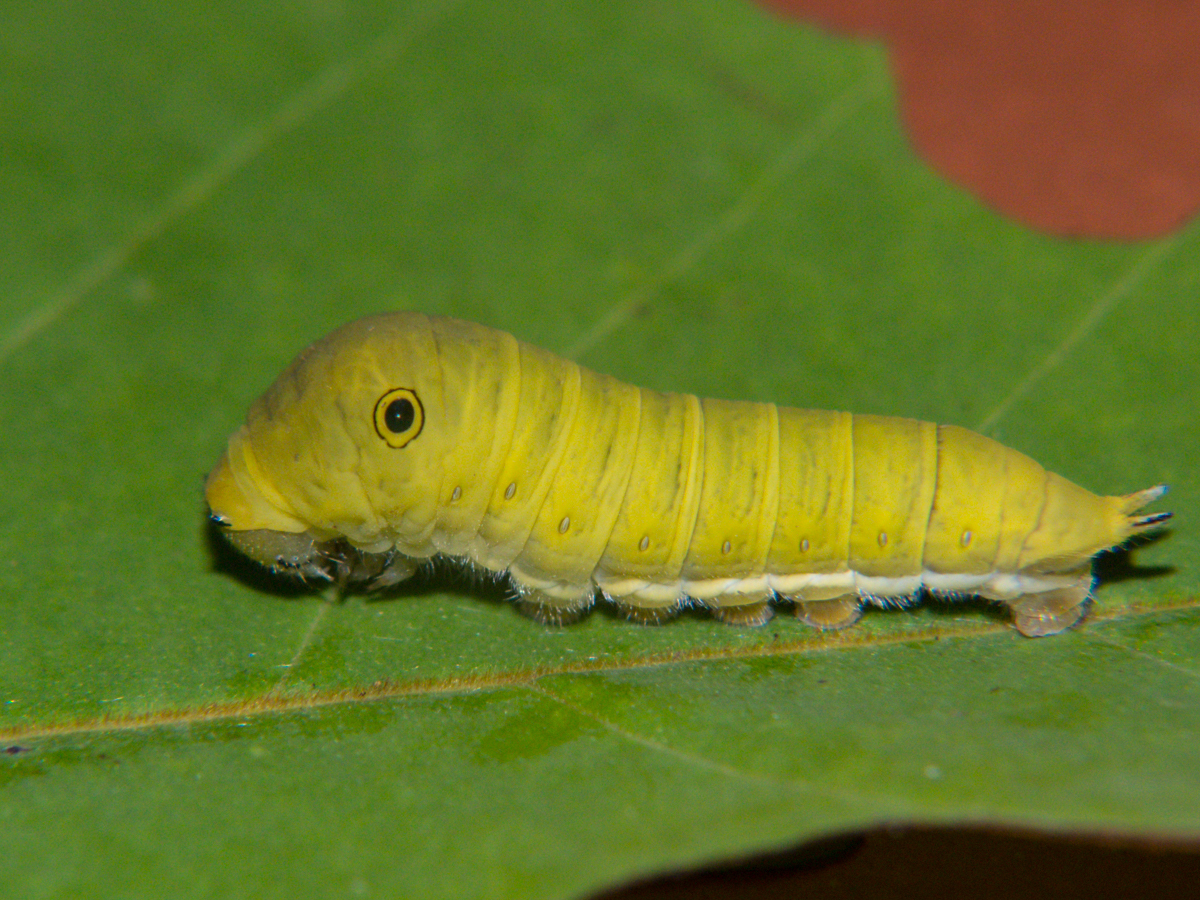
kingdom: Animalia
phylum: Arthropoda
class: Insecta
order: Lepidoptera
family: Papilionidae
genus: Graphium
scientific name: Graphium doson
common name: Common jay
